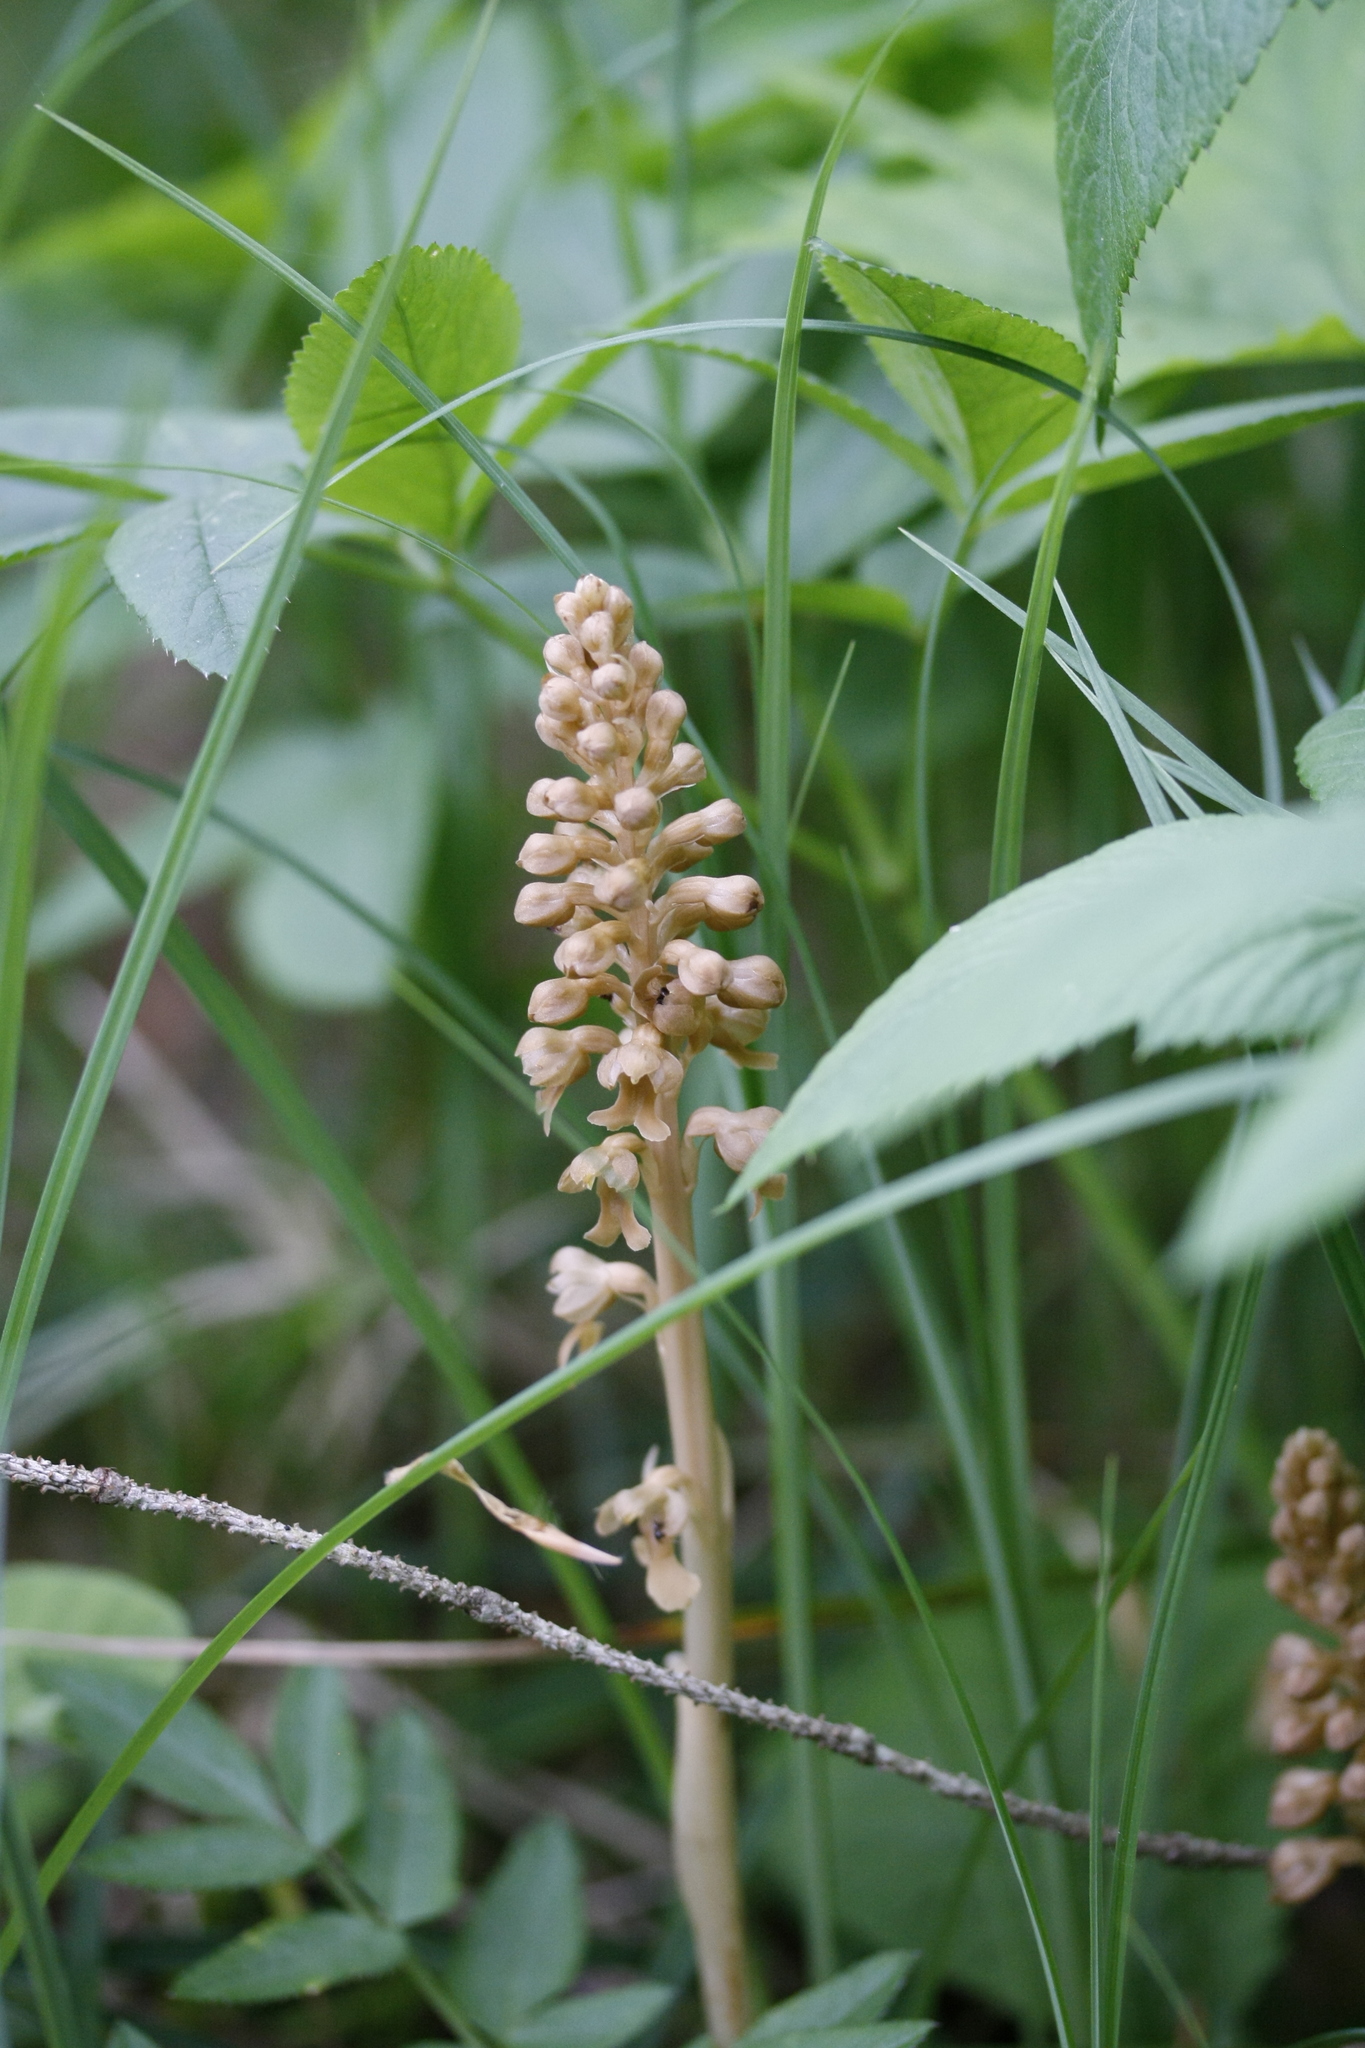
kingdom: Plantae
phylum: Tracheophyta
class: Liliopsida
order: Asparagales
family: Orchidaceae
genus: Neottia
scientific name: Neottia nidus-avis
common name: Bird's-nest orchid
